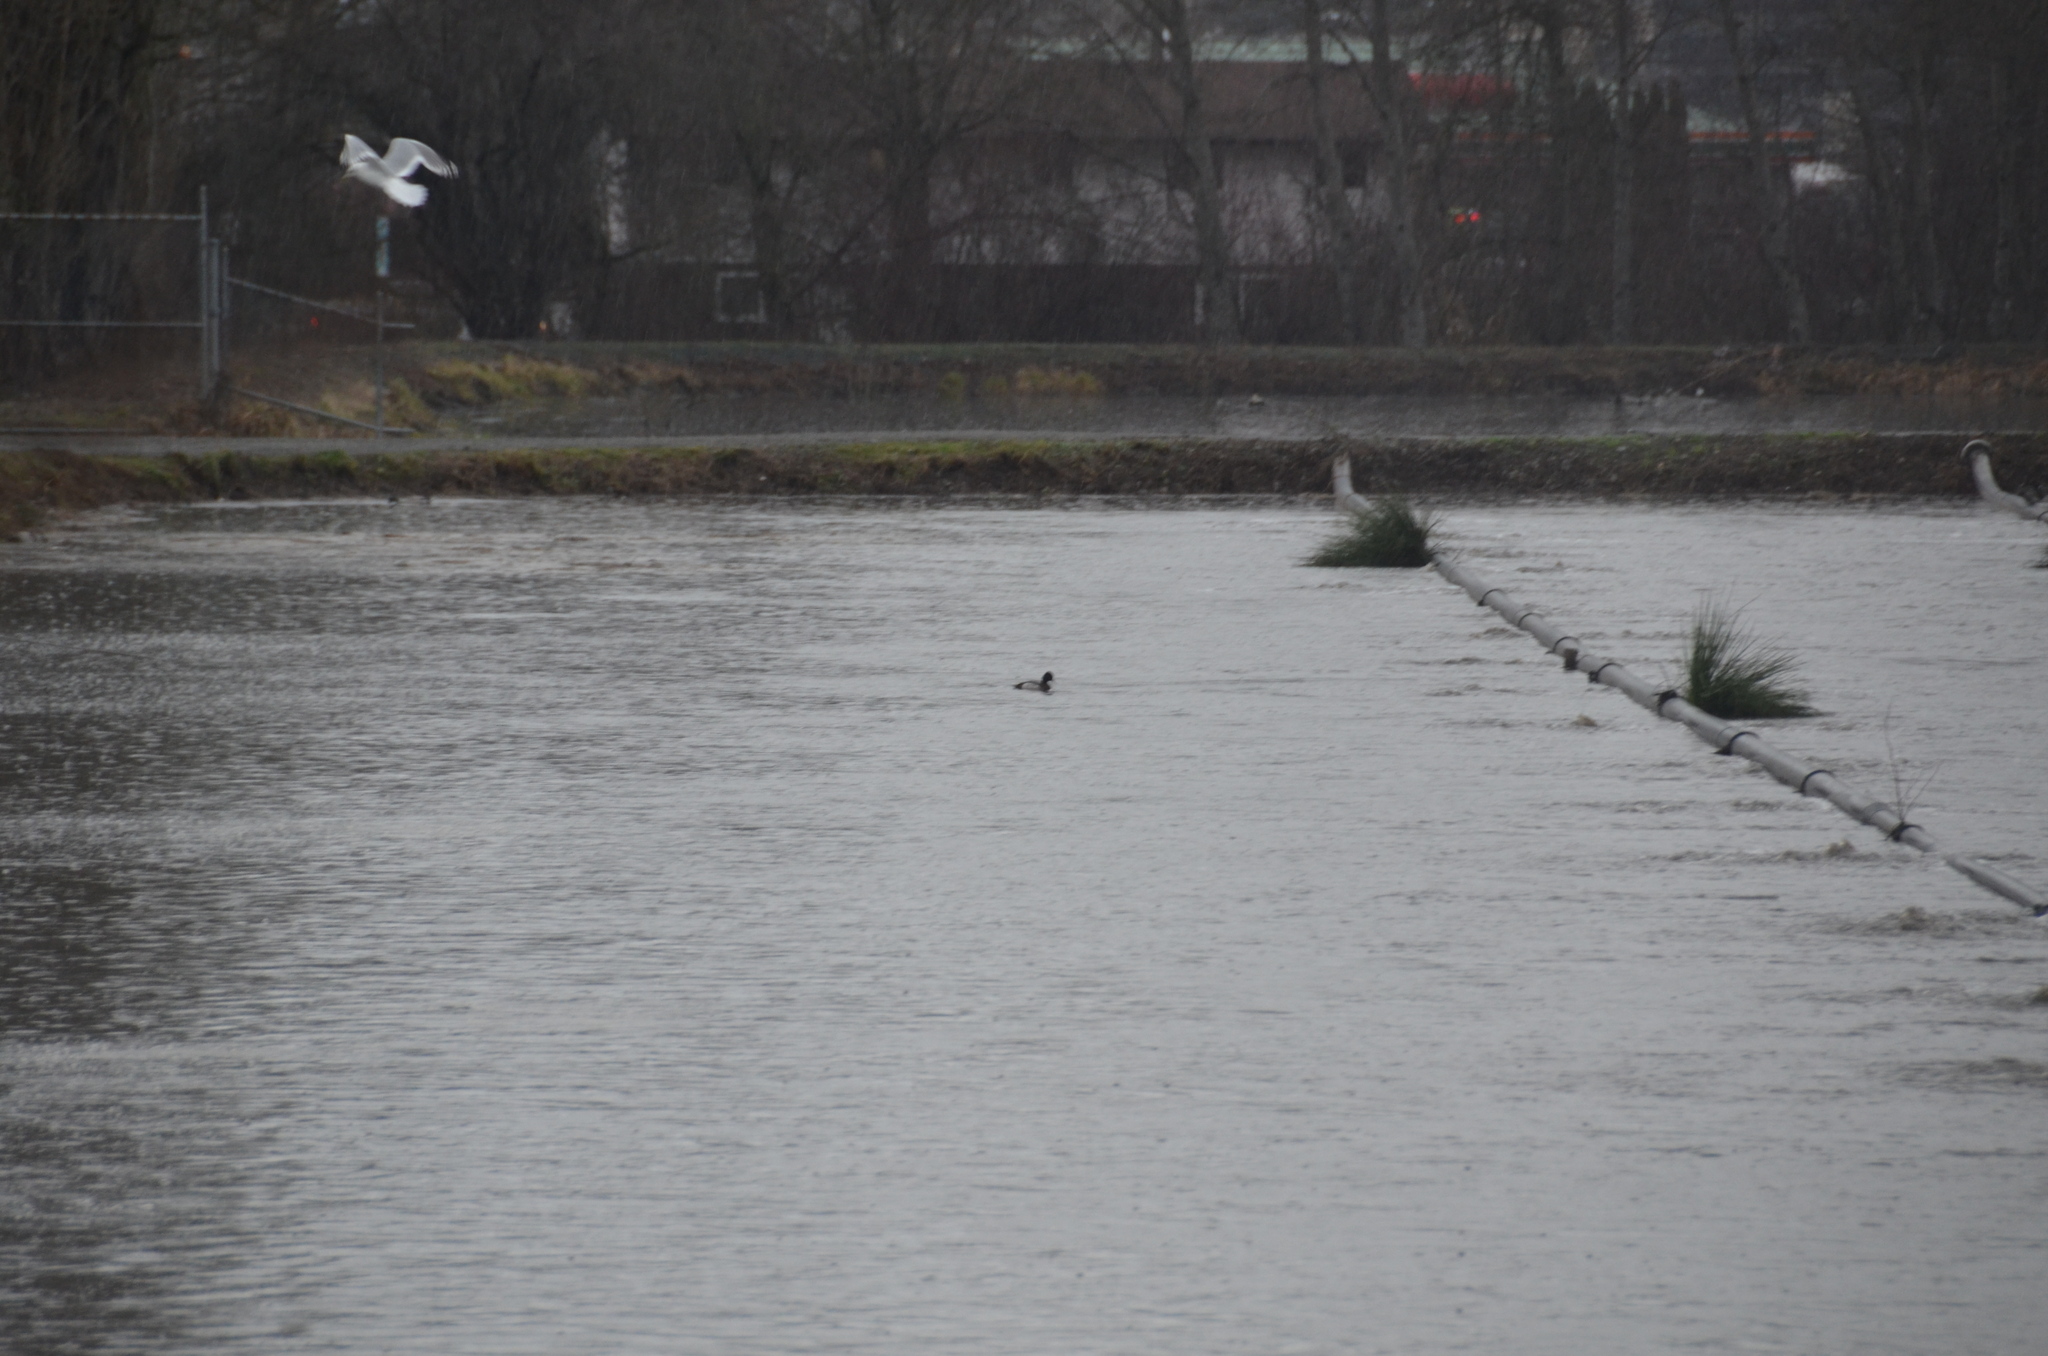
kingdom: Animalia
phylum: Chordata
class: Aves
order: Anseriformes
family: Anatidae
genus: Aythya
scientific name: Aythya affinis
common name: Lesser scaup
